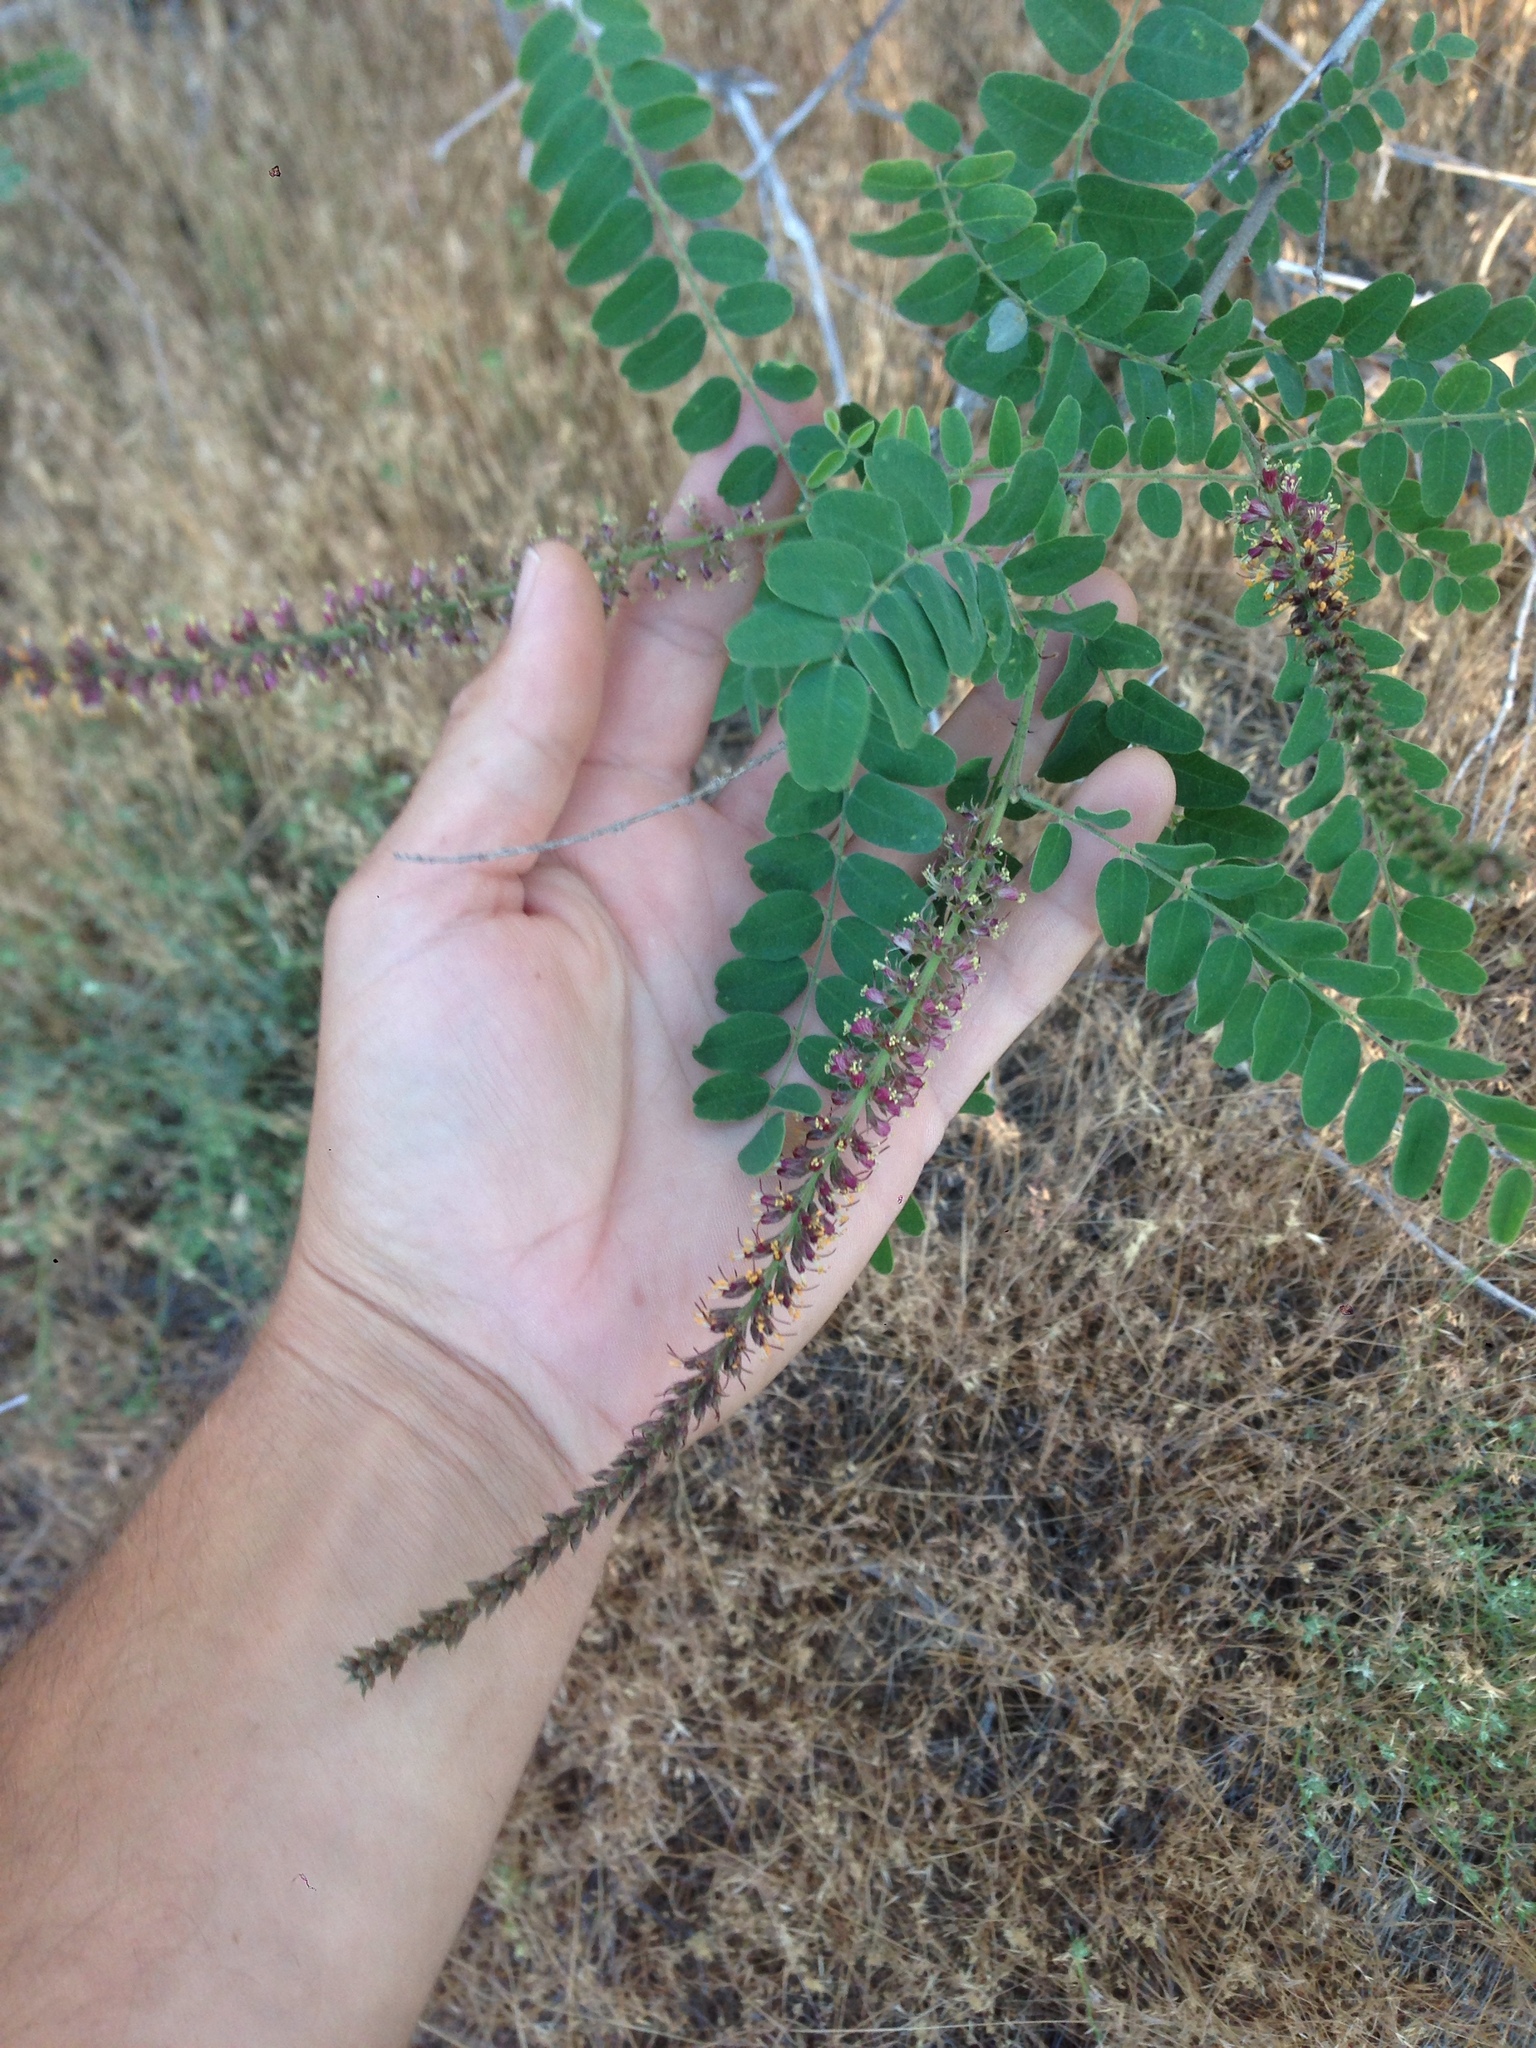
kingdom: Plantae
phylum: Tracheophyta
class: Magnoliopsida
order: Fabales
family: Fabaceae
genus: Amorpha
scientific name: Amorpha californica
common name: California indigobush
